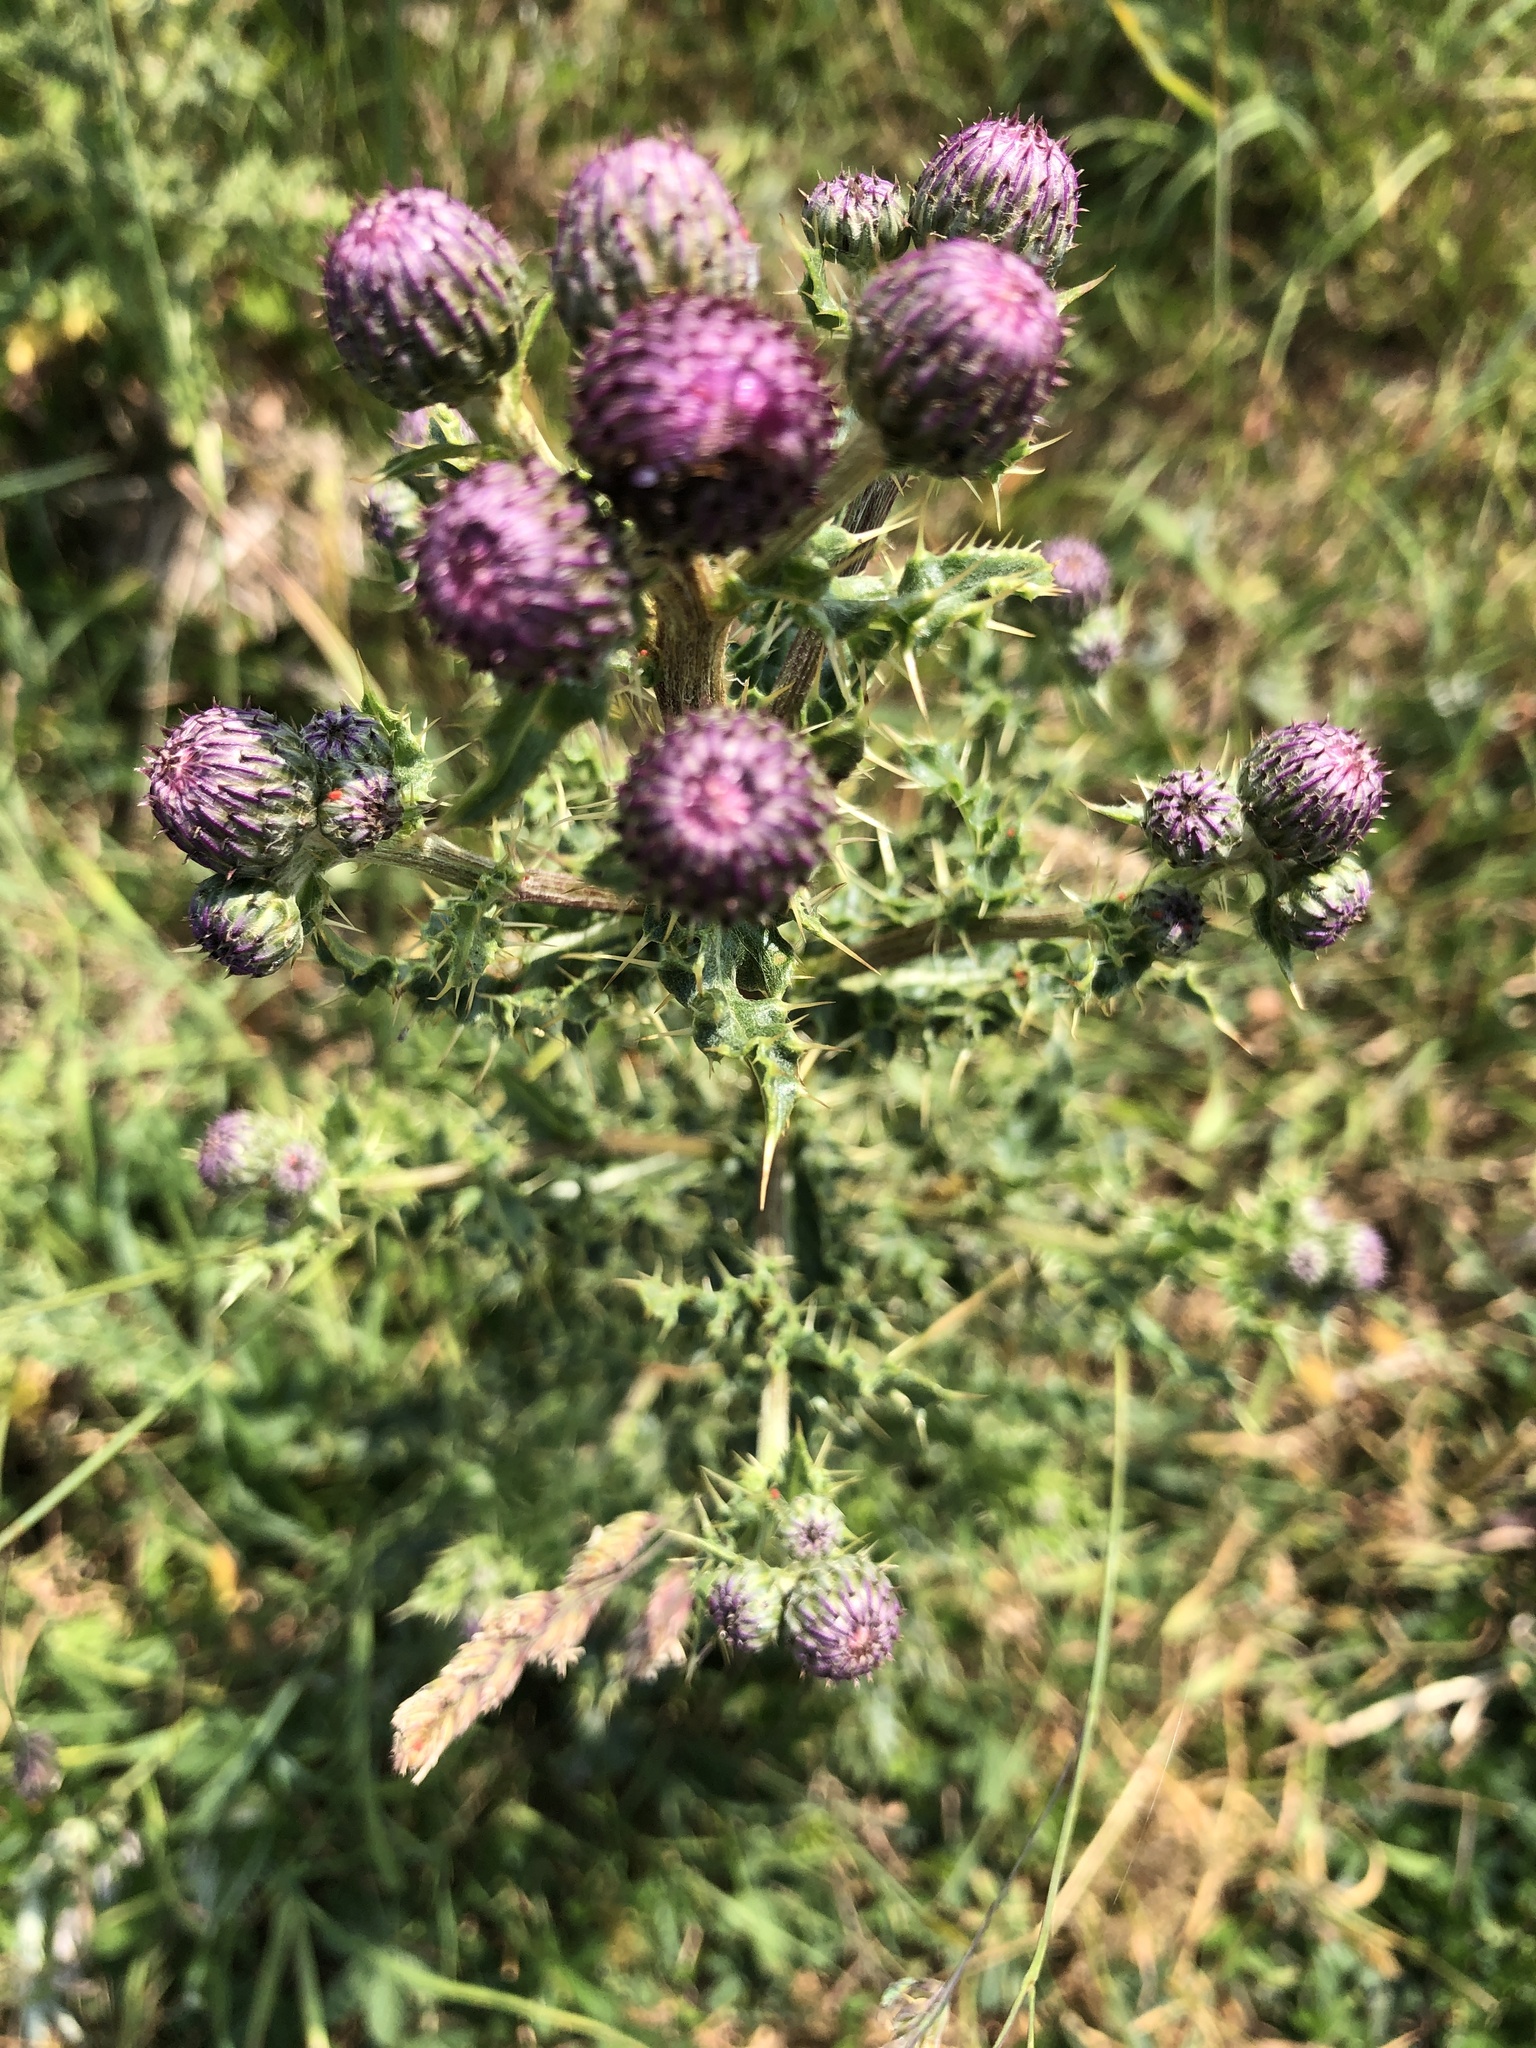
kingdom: Plantae
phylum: Tracheophyta
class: Magnoliopsida
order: Asterales
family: Asteraceae
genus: Cirsium
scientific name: Cirsium arvense
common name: Creeping thistle
